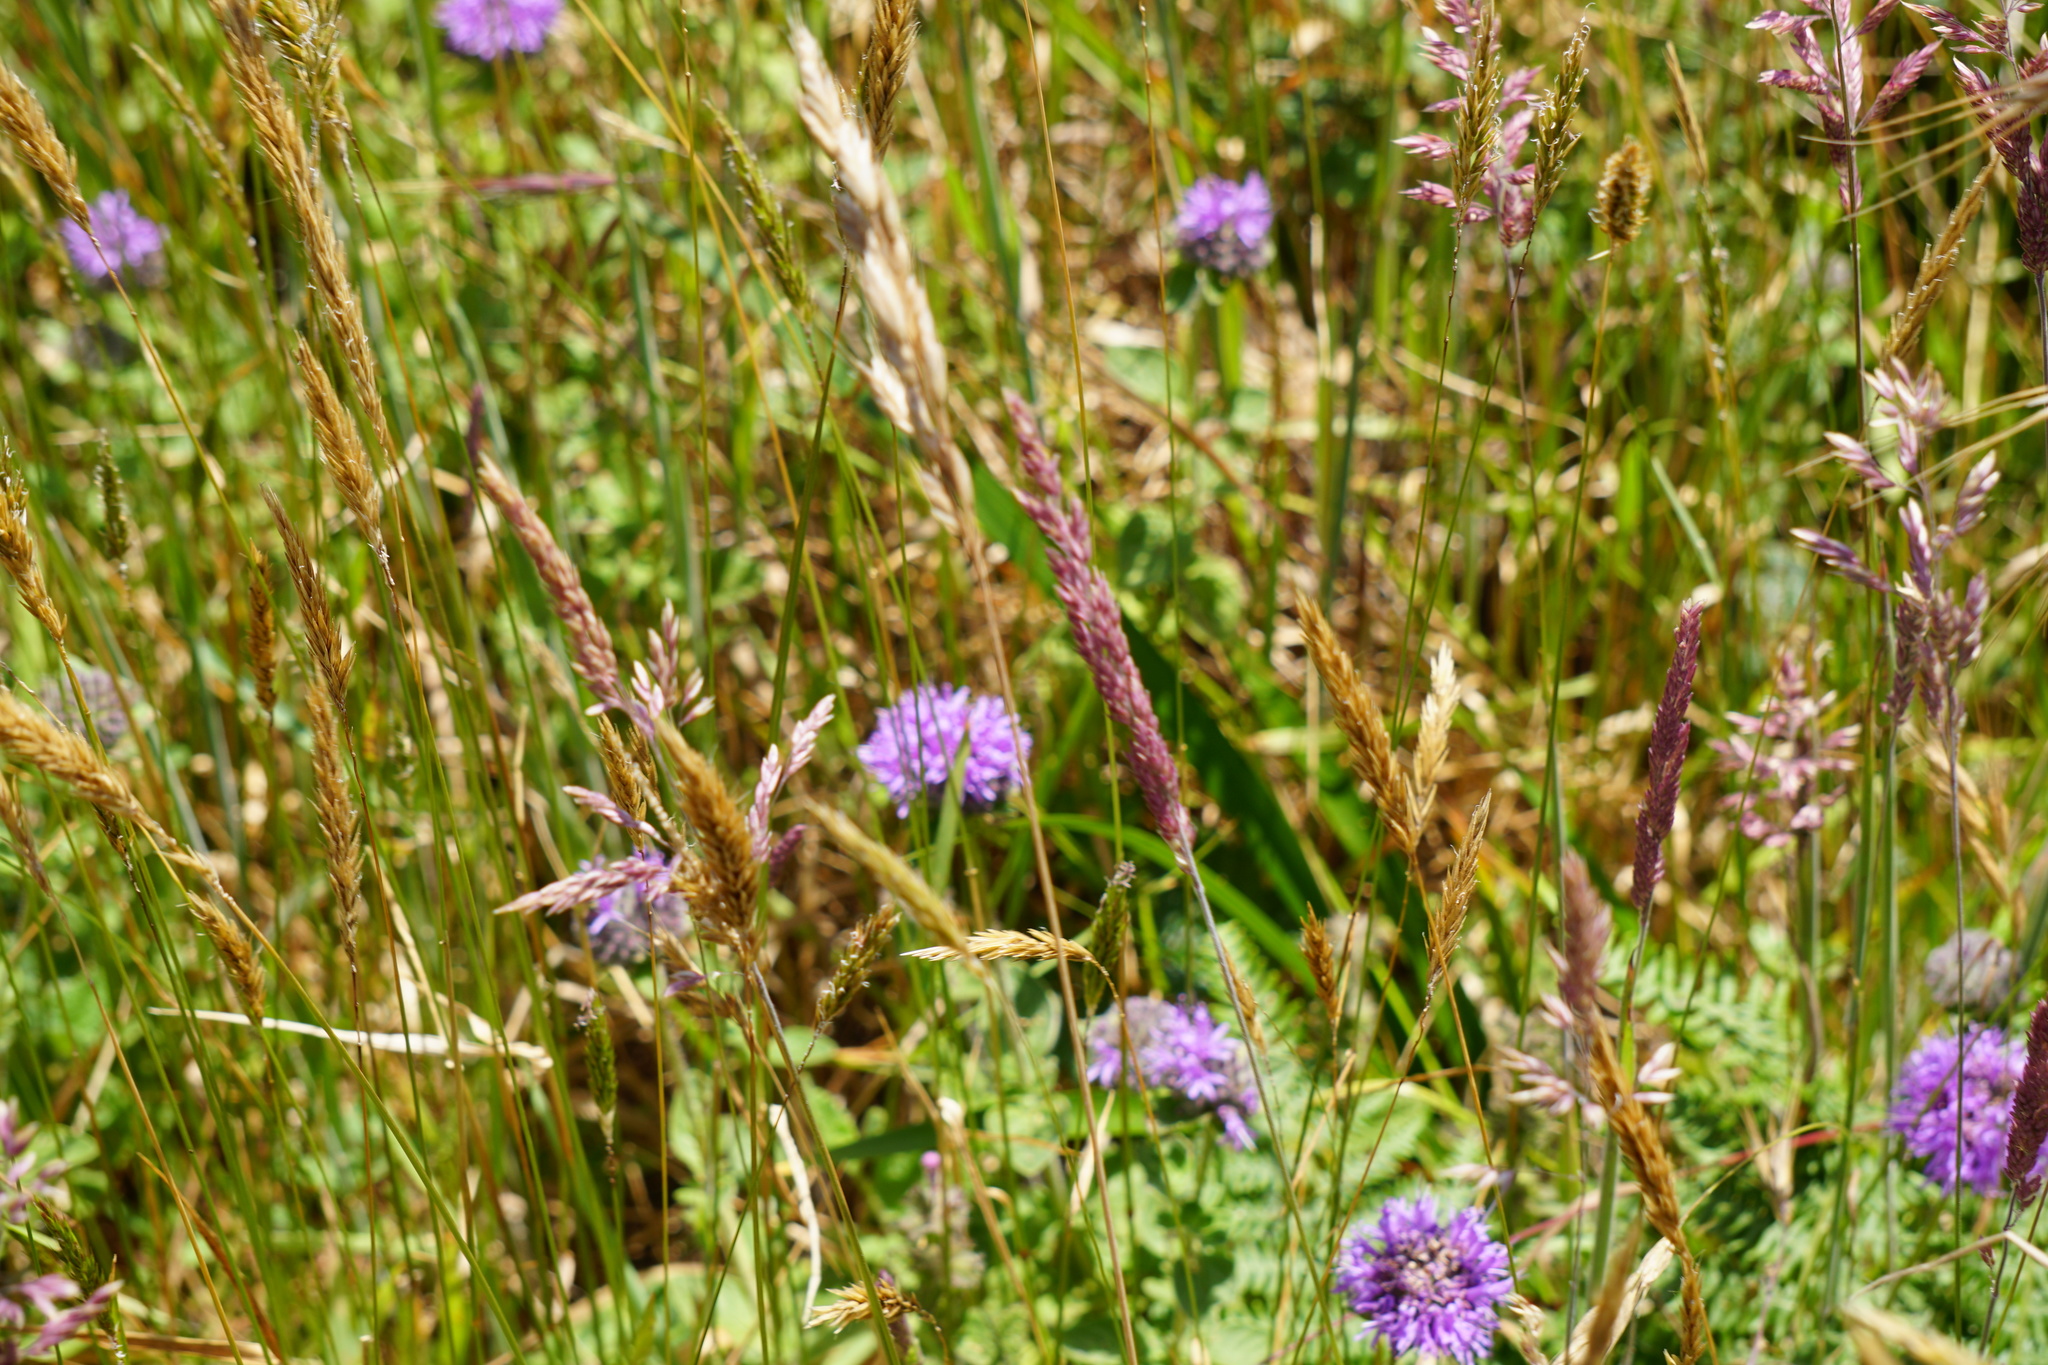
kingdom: Plantae
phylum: Tracheophyta
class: Magnoliopsida
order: Lamiales
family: Lamiaceae
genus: Monardella
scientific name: Monardella odoratissima
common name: Pacific monardella
